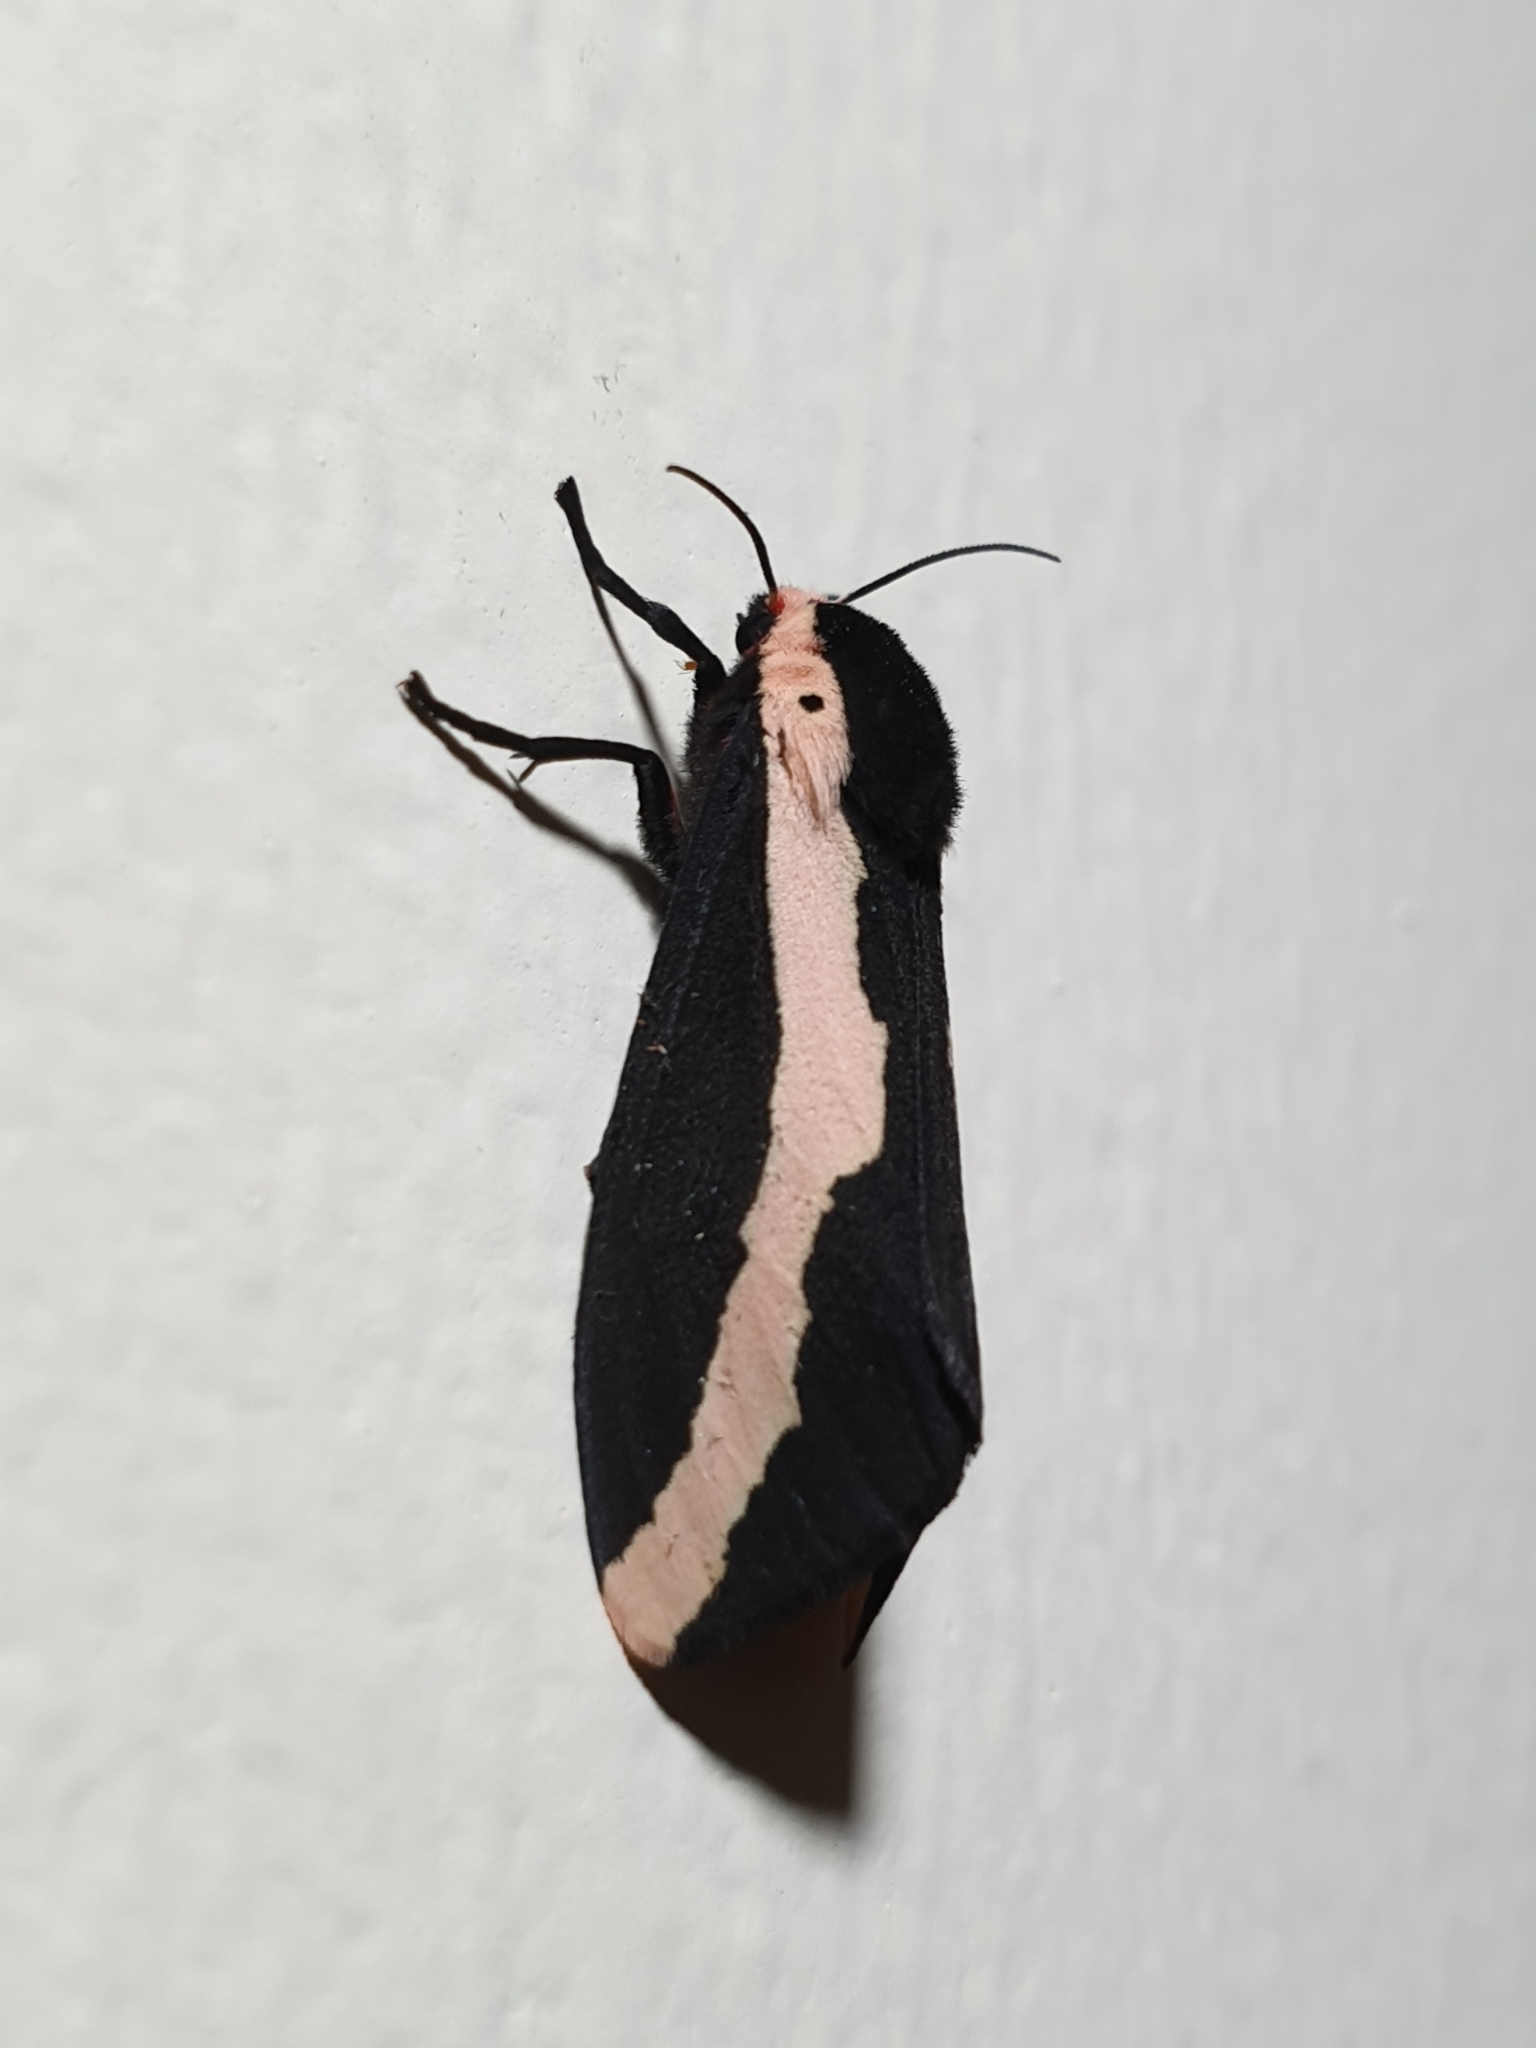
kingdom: Animalia
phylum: Arthropoda
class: Insecta
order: Lepidoptera
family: Erebidae
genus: Estigmene
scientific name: Estigmene
